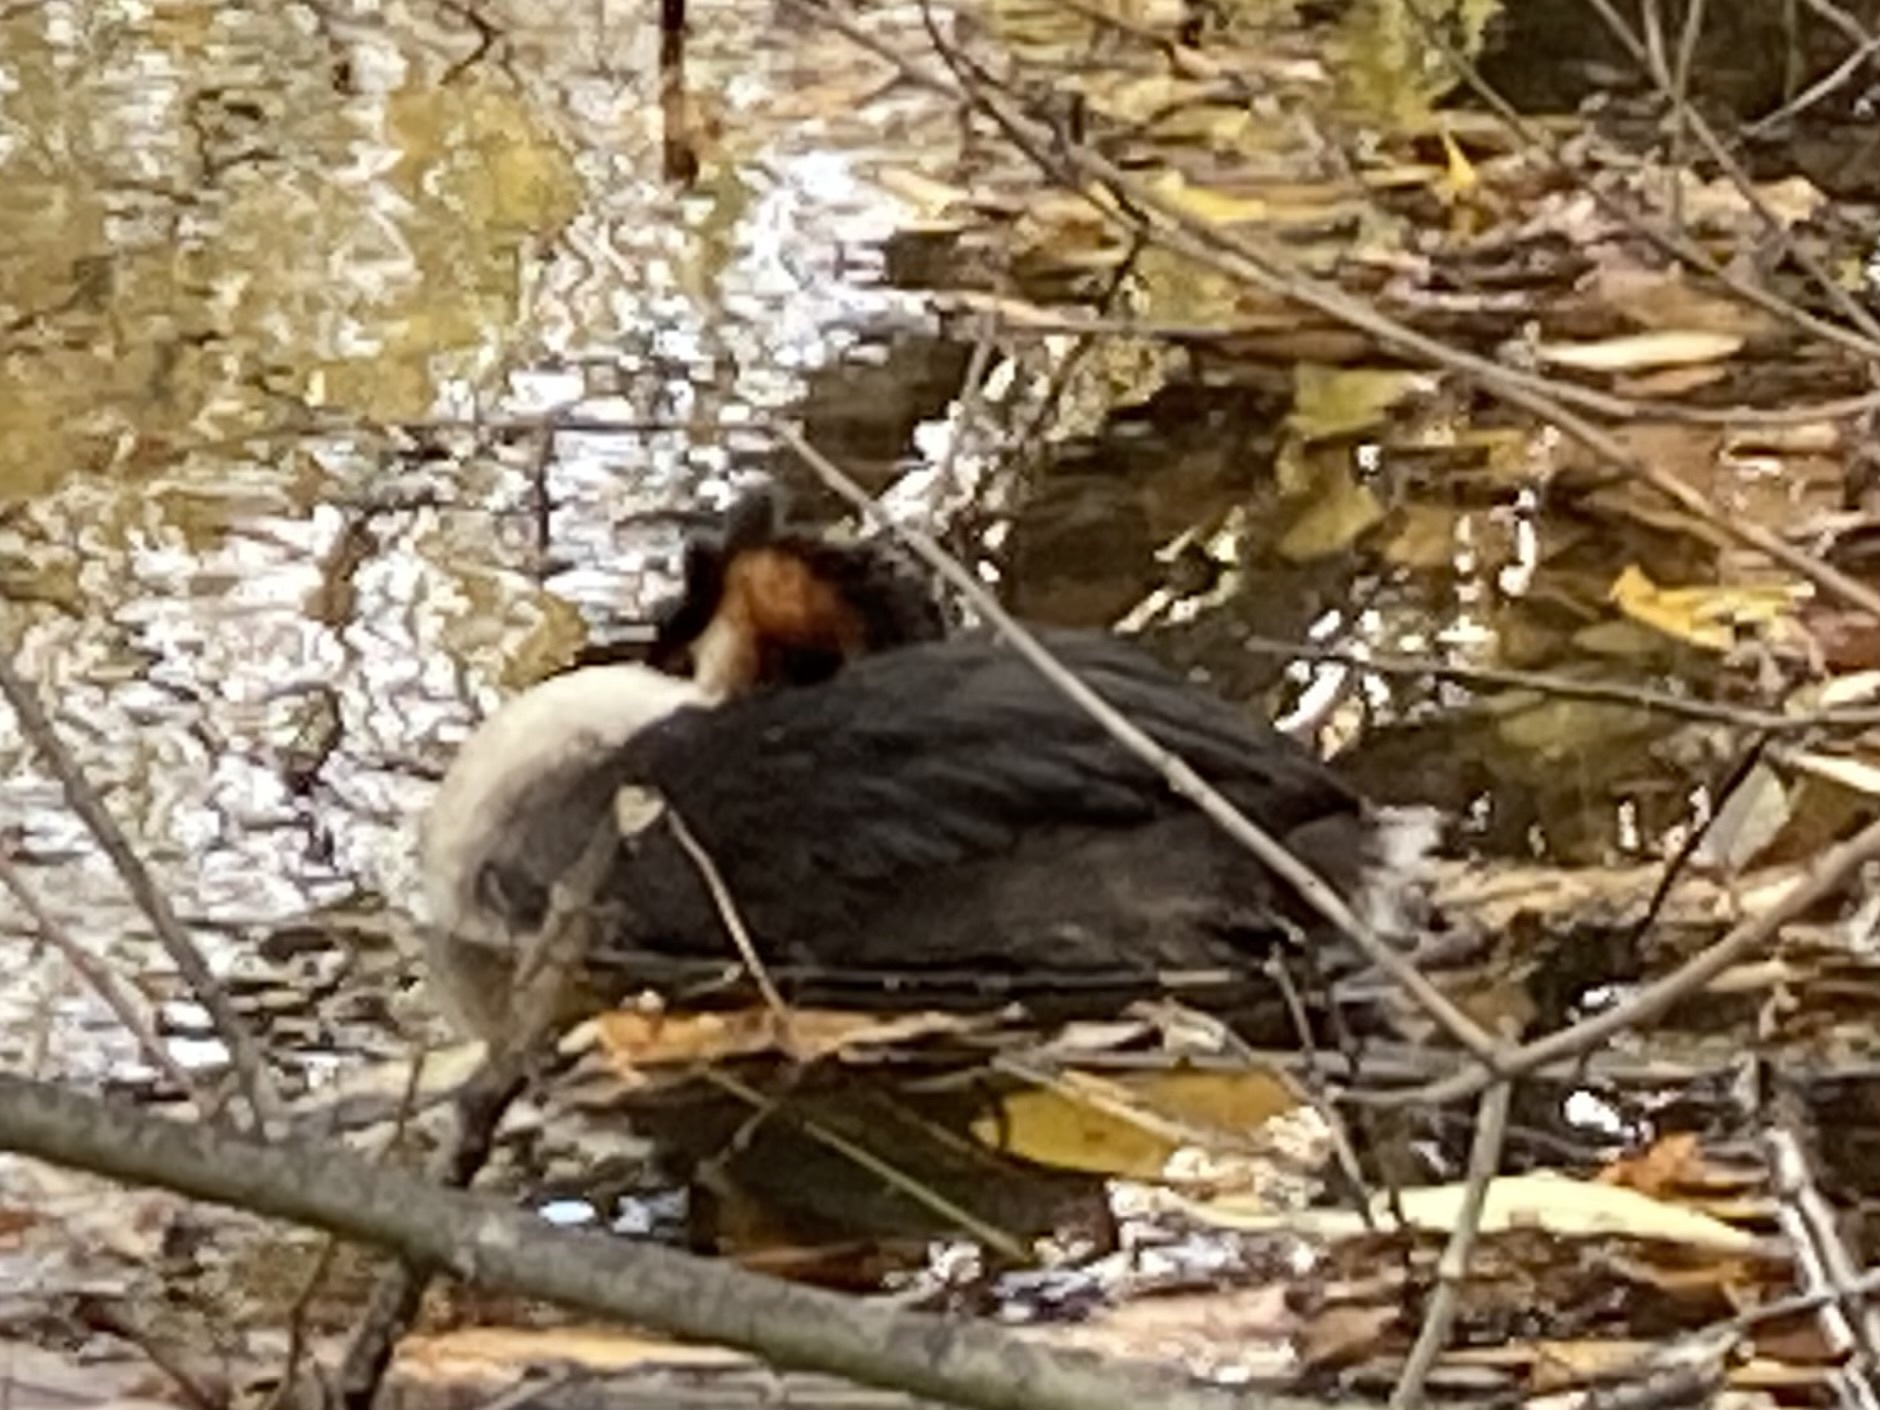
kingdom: Animalia
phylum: Chordata
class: Aves
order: Podicipediformes
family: Podicipedidae
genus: Podiceps
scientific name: Podiceps cristatus
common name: Great crested grebe
